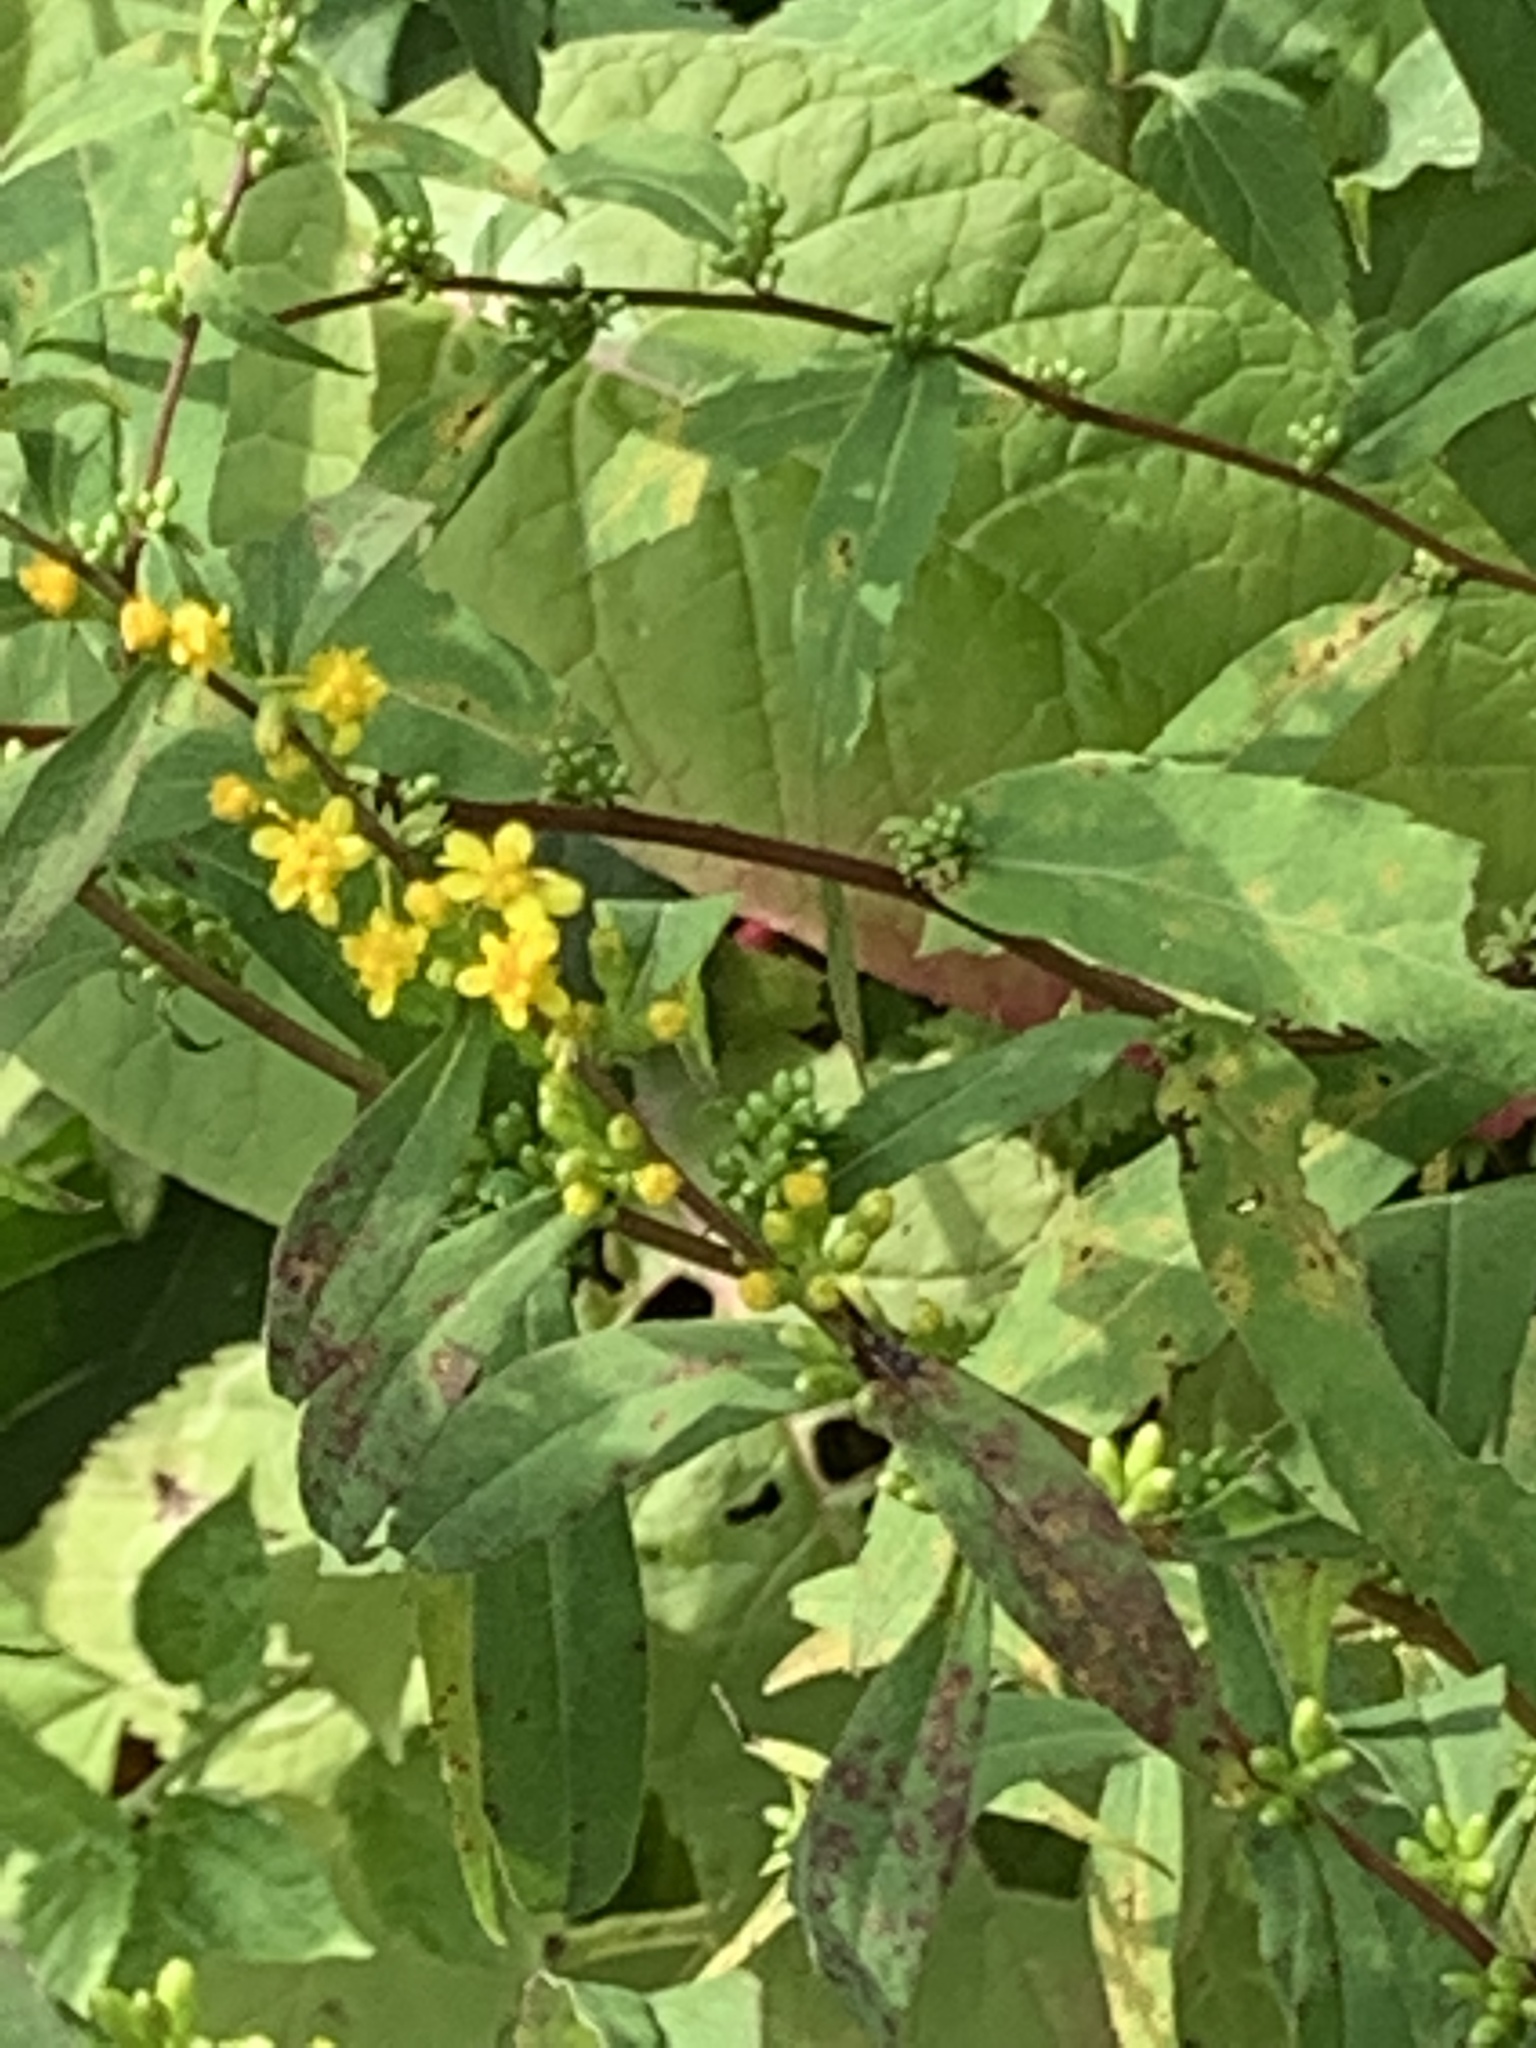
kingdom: Plantae
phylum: Tracheophyta
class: Magnoliopsida
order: Asterales
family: Asteraceae
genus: Solidago
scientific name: Solidago caesia
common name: Woodland goldenrod
